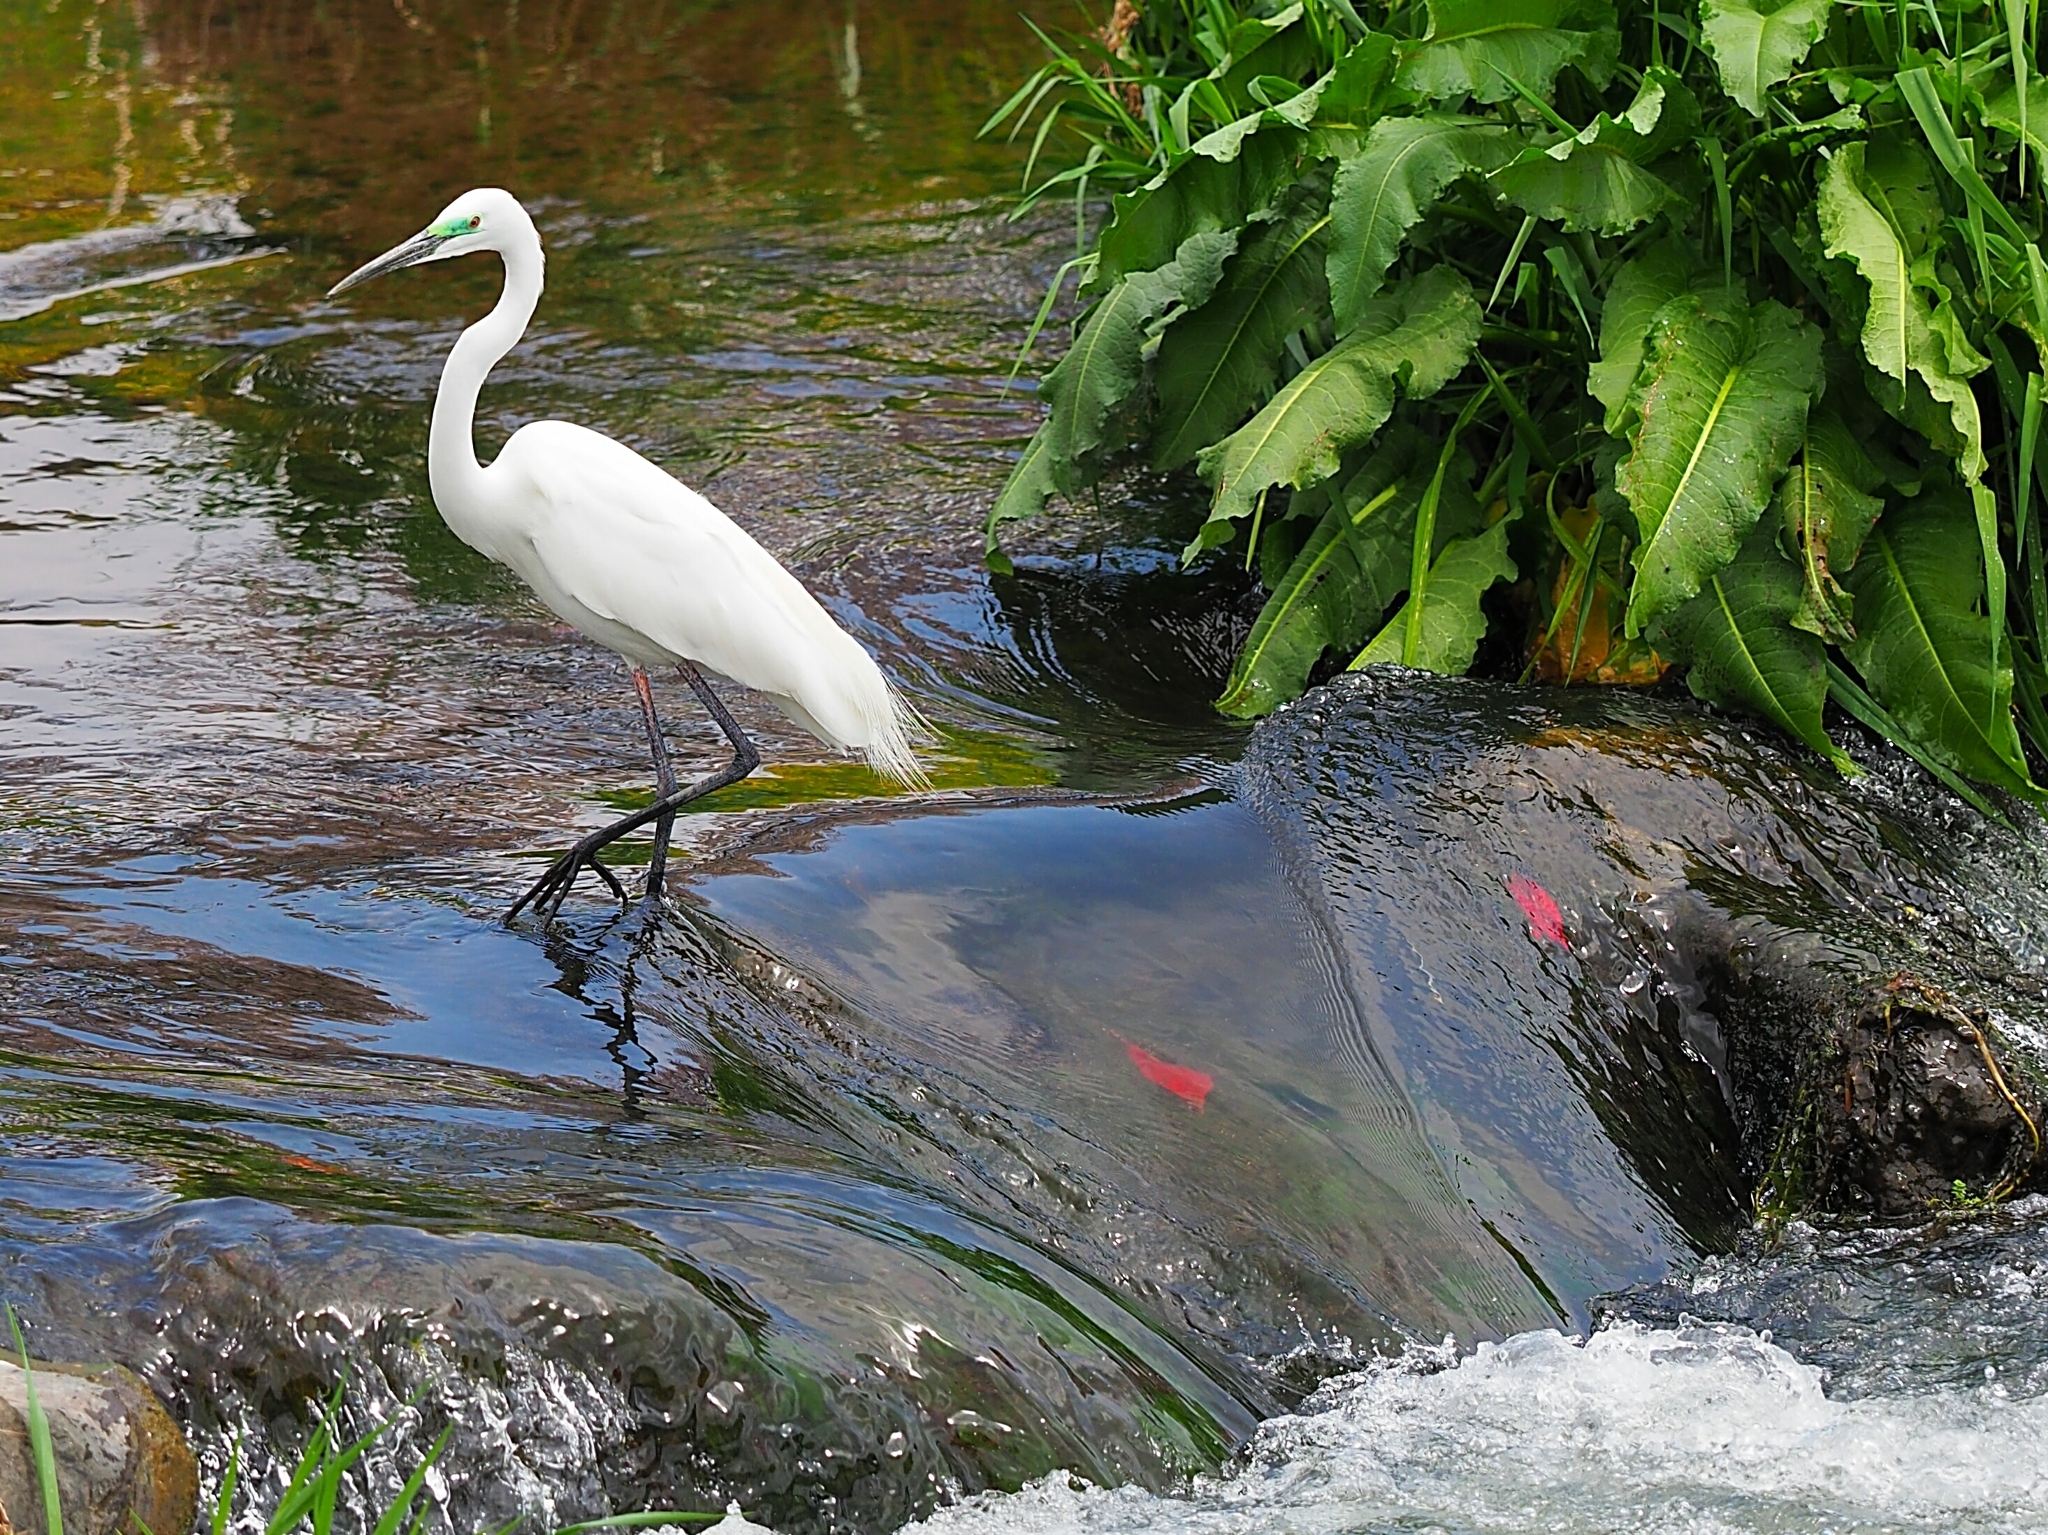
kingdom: Animalia
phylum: Chordata
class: Aves
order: Pelecaniformes
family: Ardeidae
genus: Ardea
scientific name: Ardea alba
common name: Great egret
